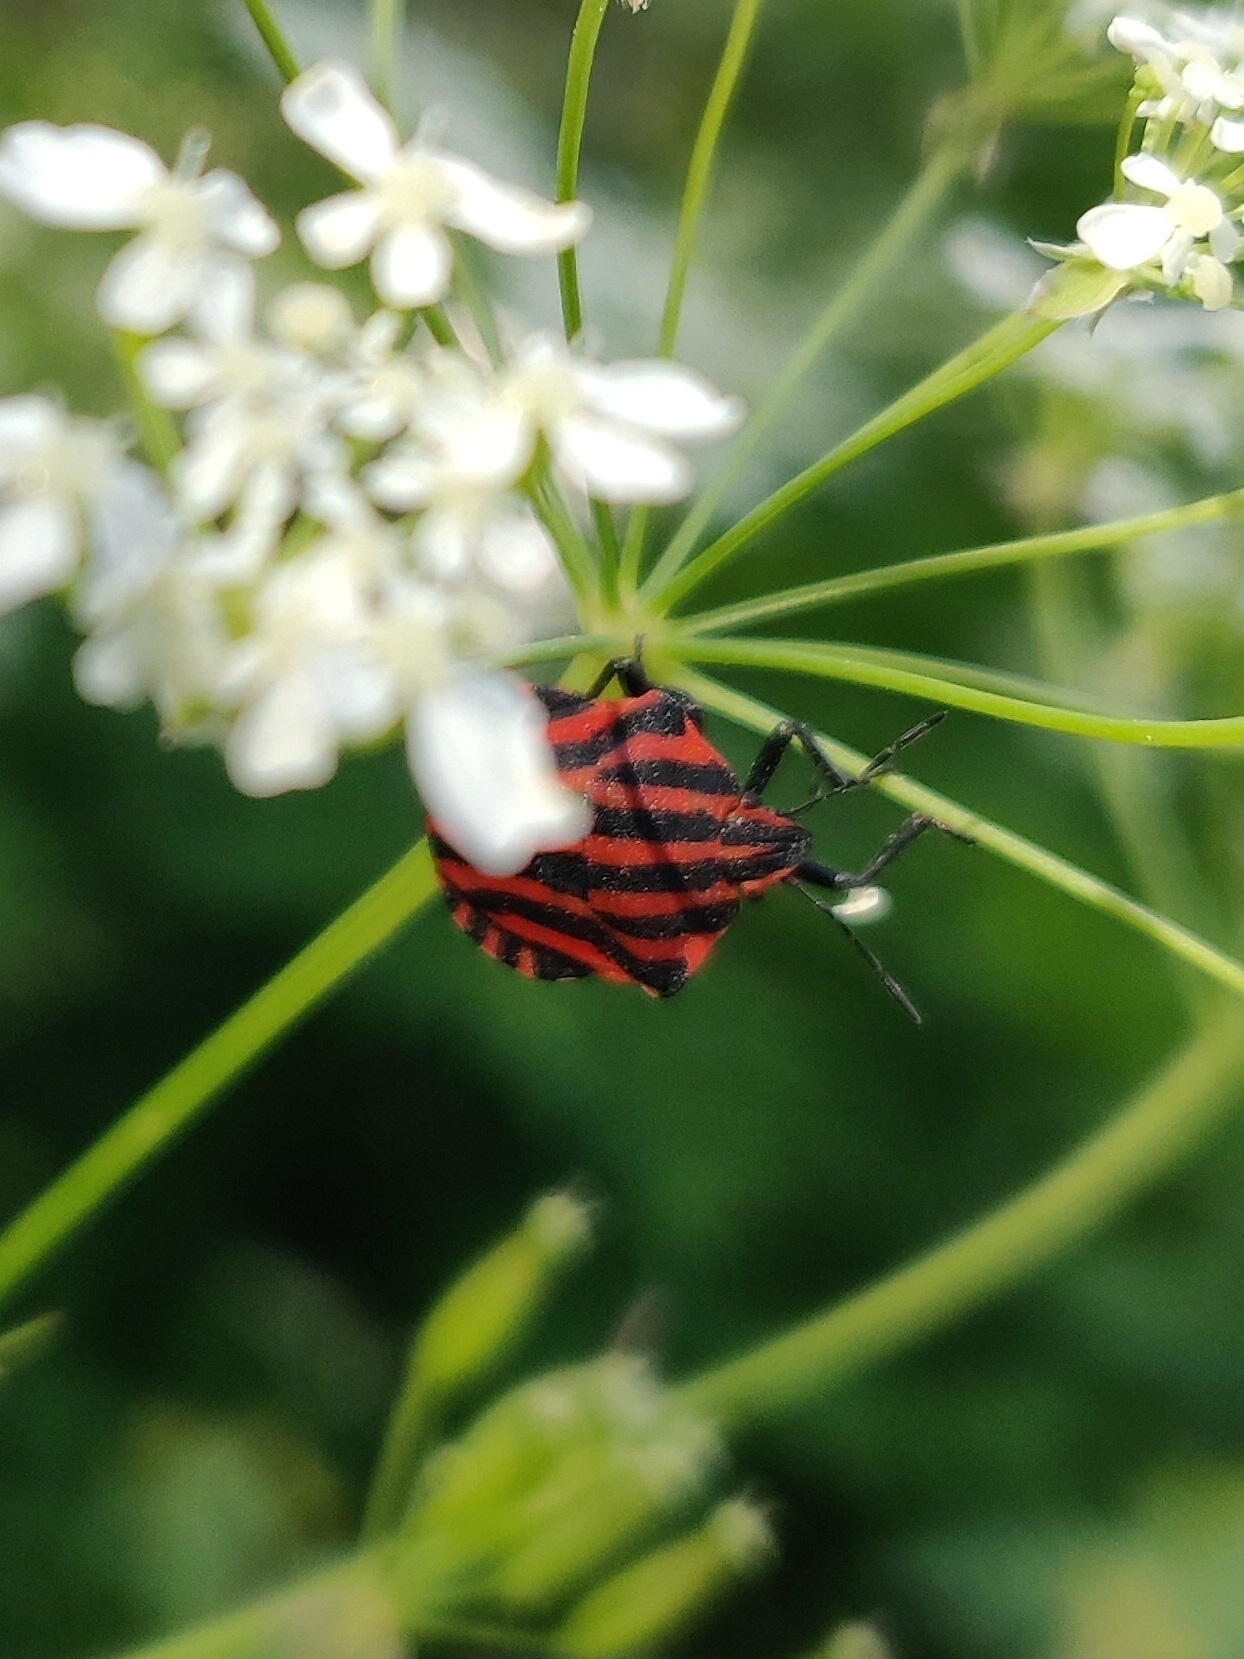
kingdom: Animalia
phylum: Arthropoda
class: Insecta
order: Hemiptera
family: Pentatomidae
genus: Graphosoma
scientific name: Graphosoma italicum
